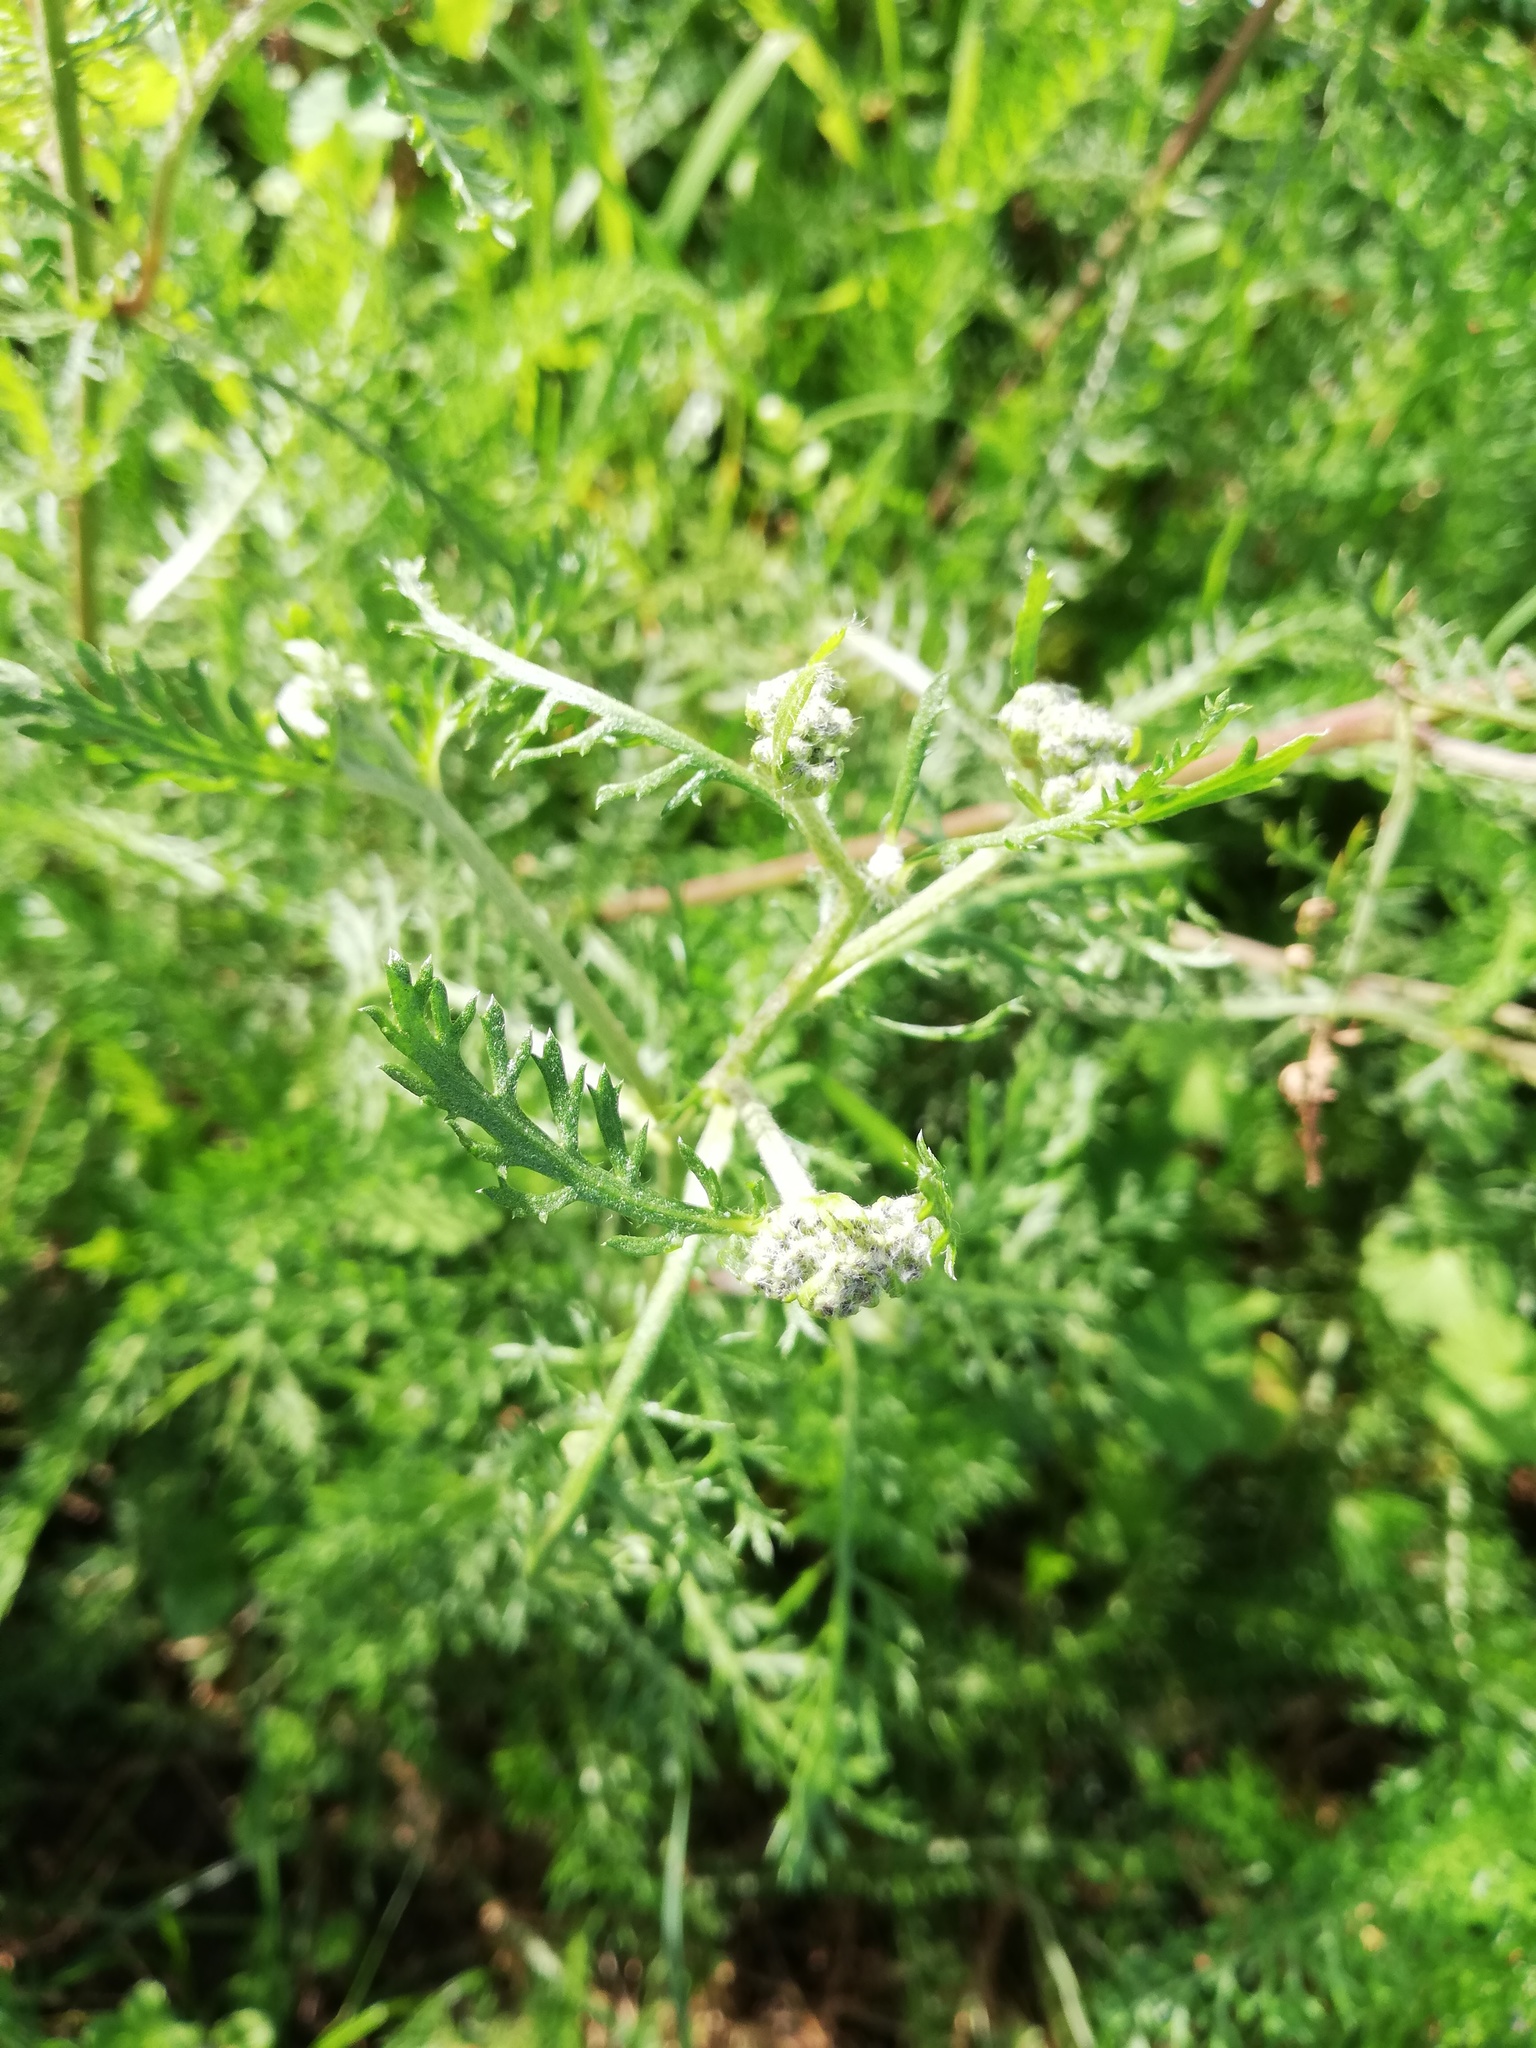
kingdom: Plantae
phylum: Tracheophyta
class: Magnoliopsida
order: Asterales
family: Asteraceae
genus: Achillea
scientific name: Achillea millefolium
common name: Yarrow
